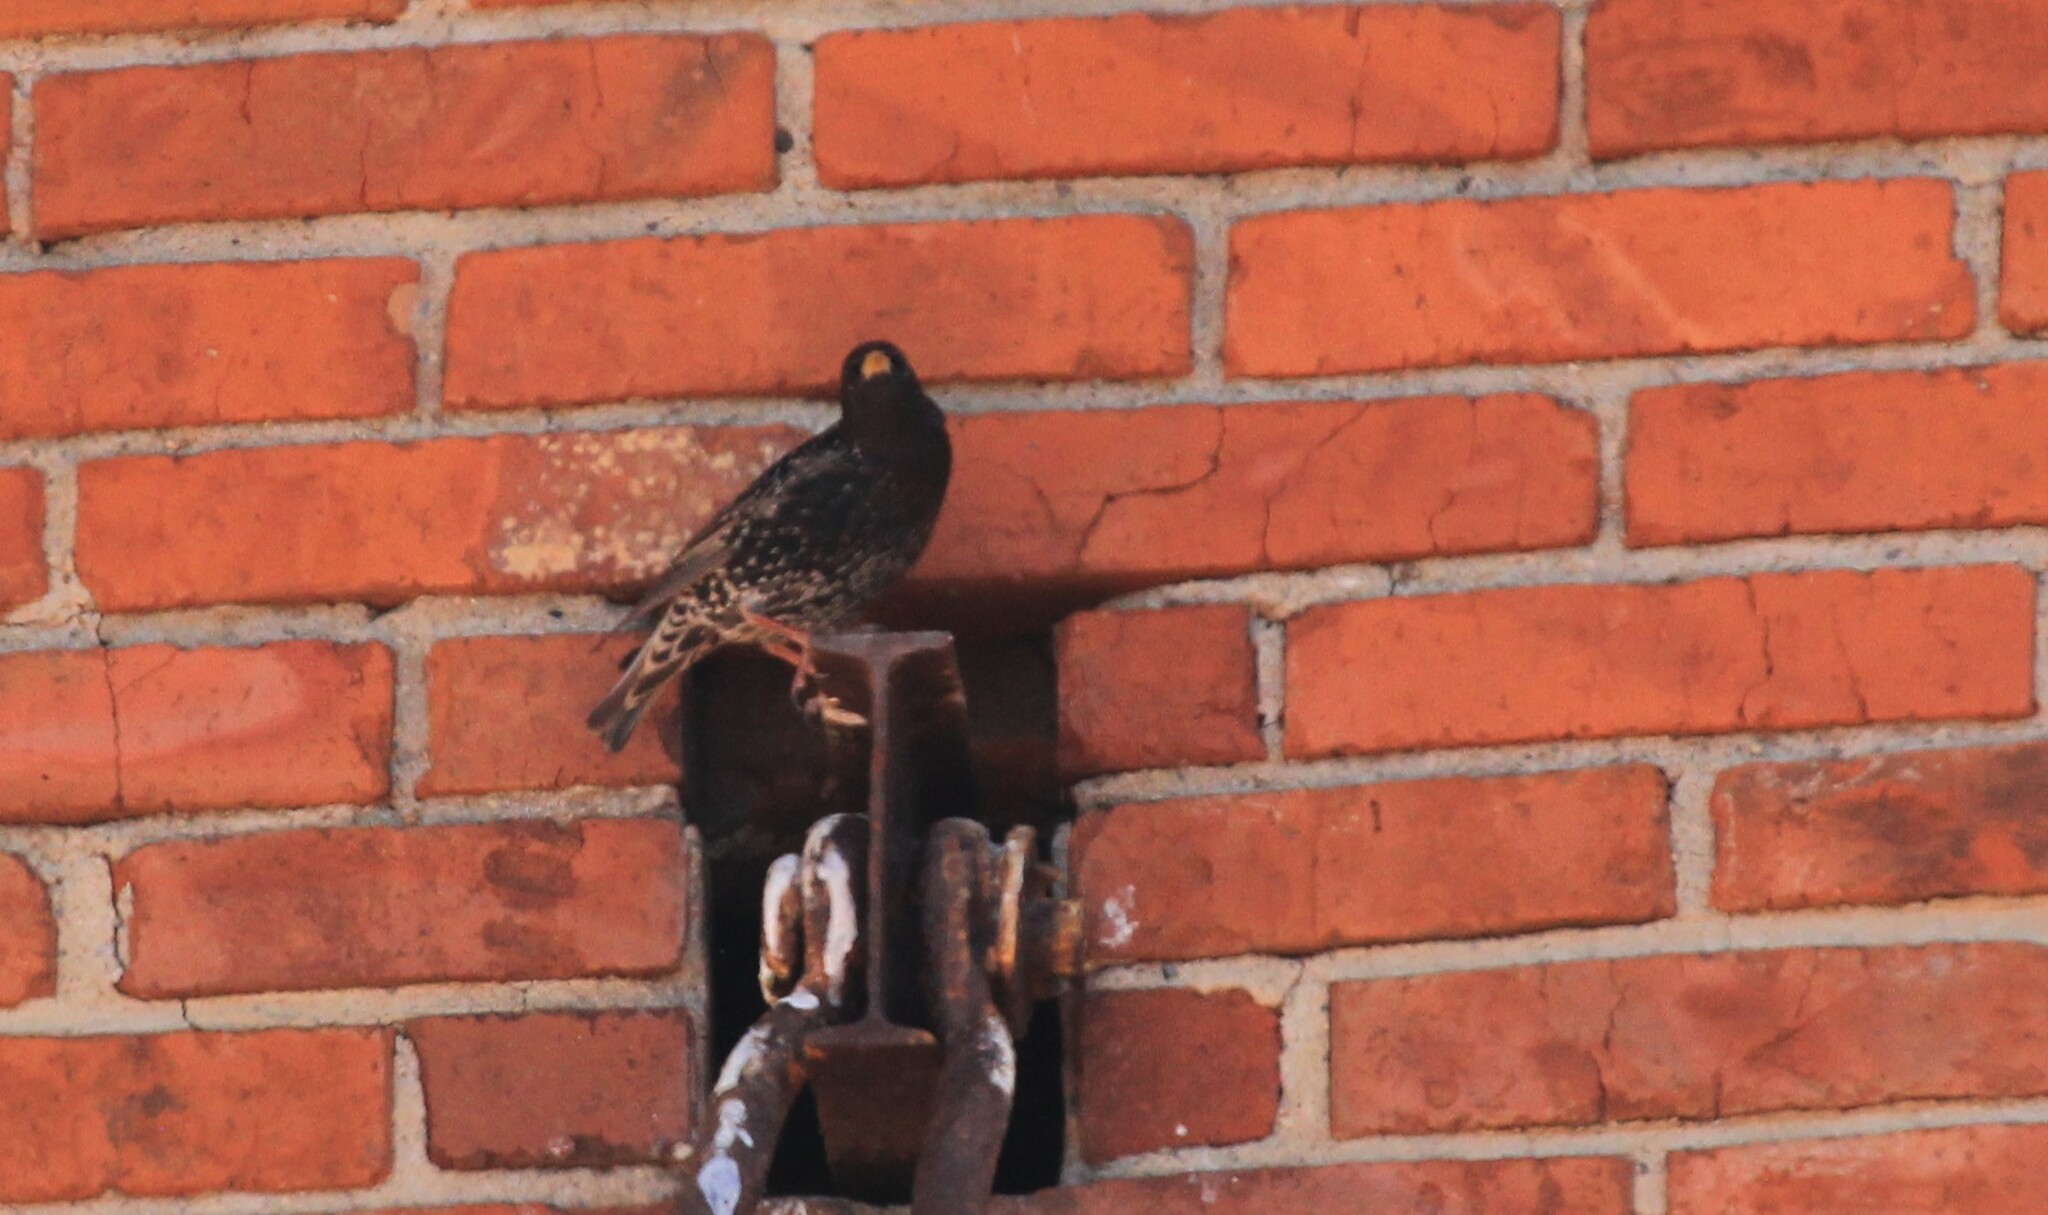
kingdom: Animalia
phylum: Chordata
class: Aves
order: Passeriformes
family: Sturnidae
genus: Sturnus
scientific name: Sturnus vulgaris
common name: Common starling
